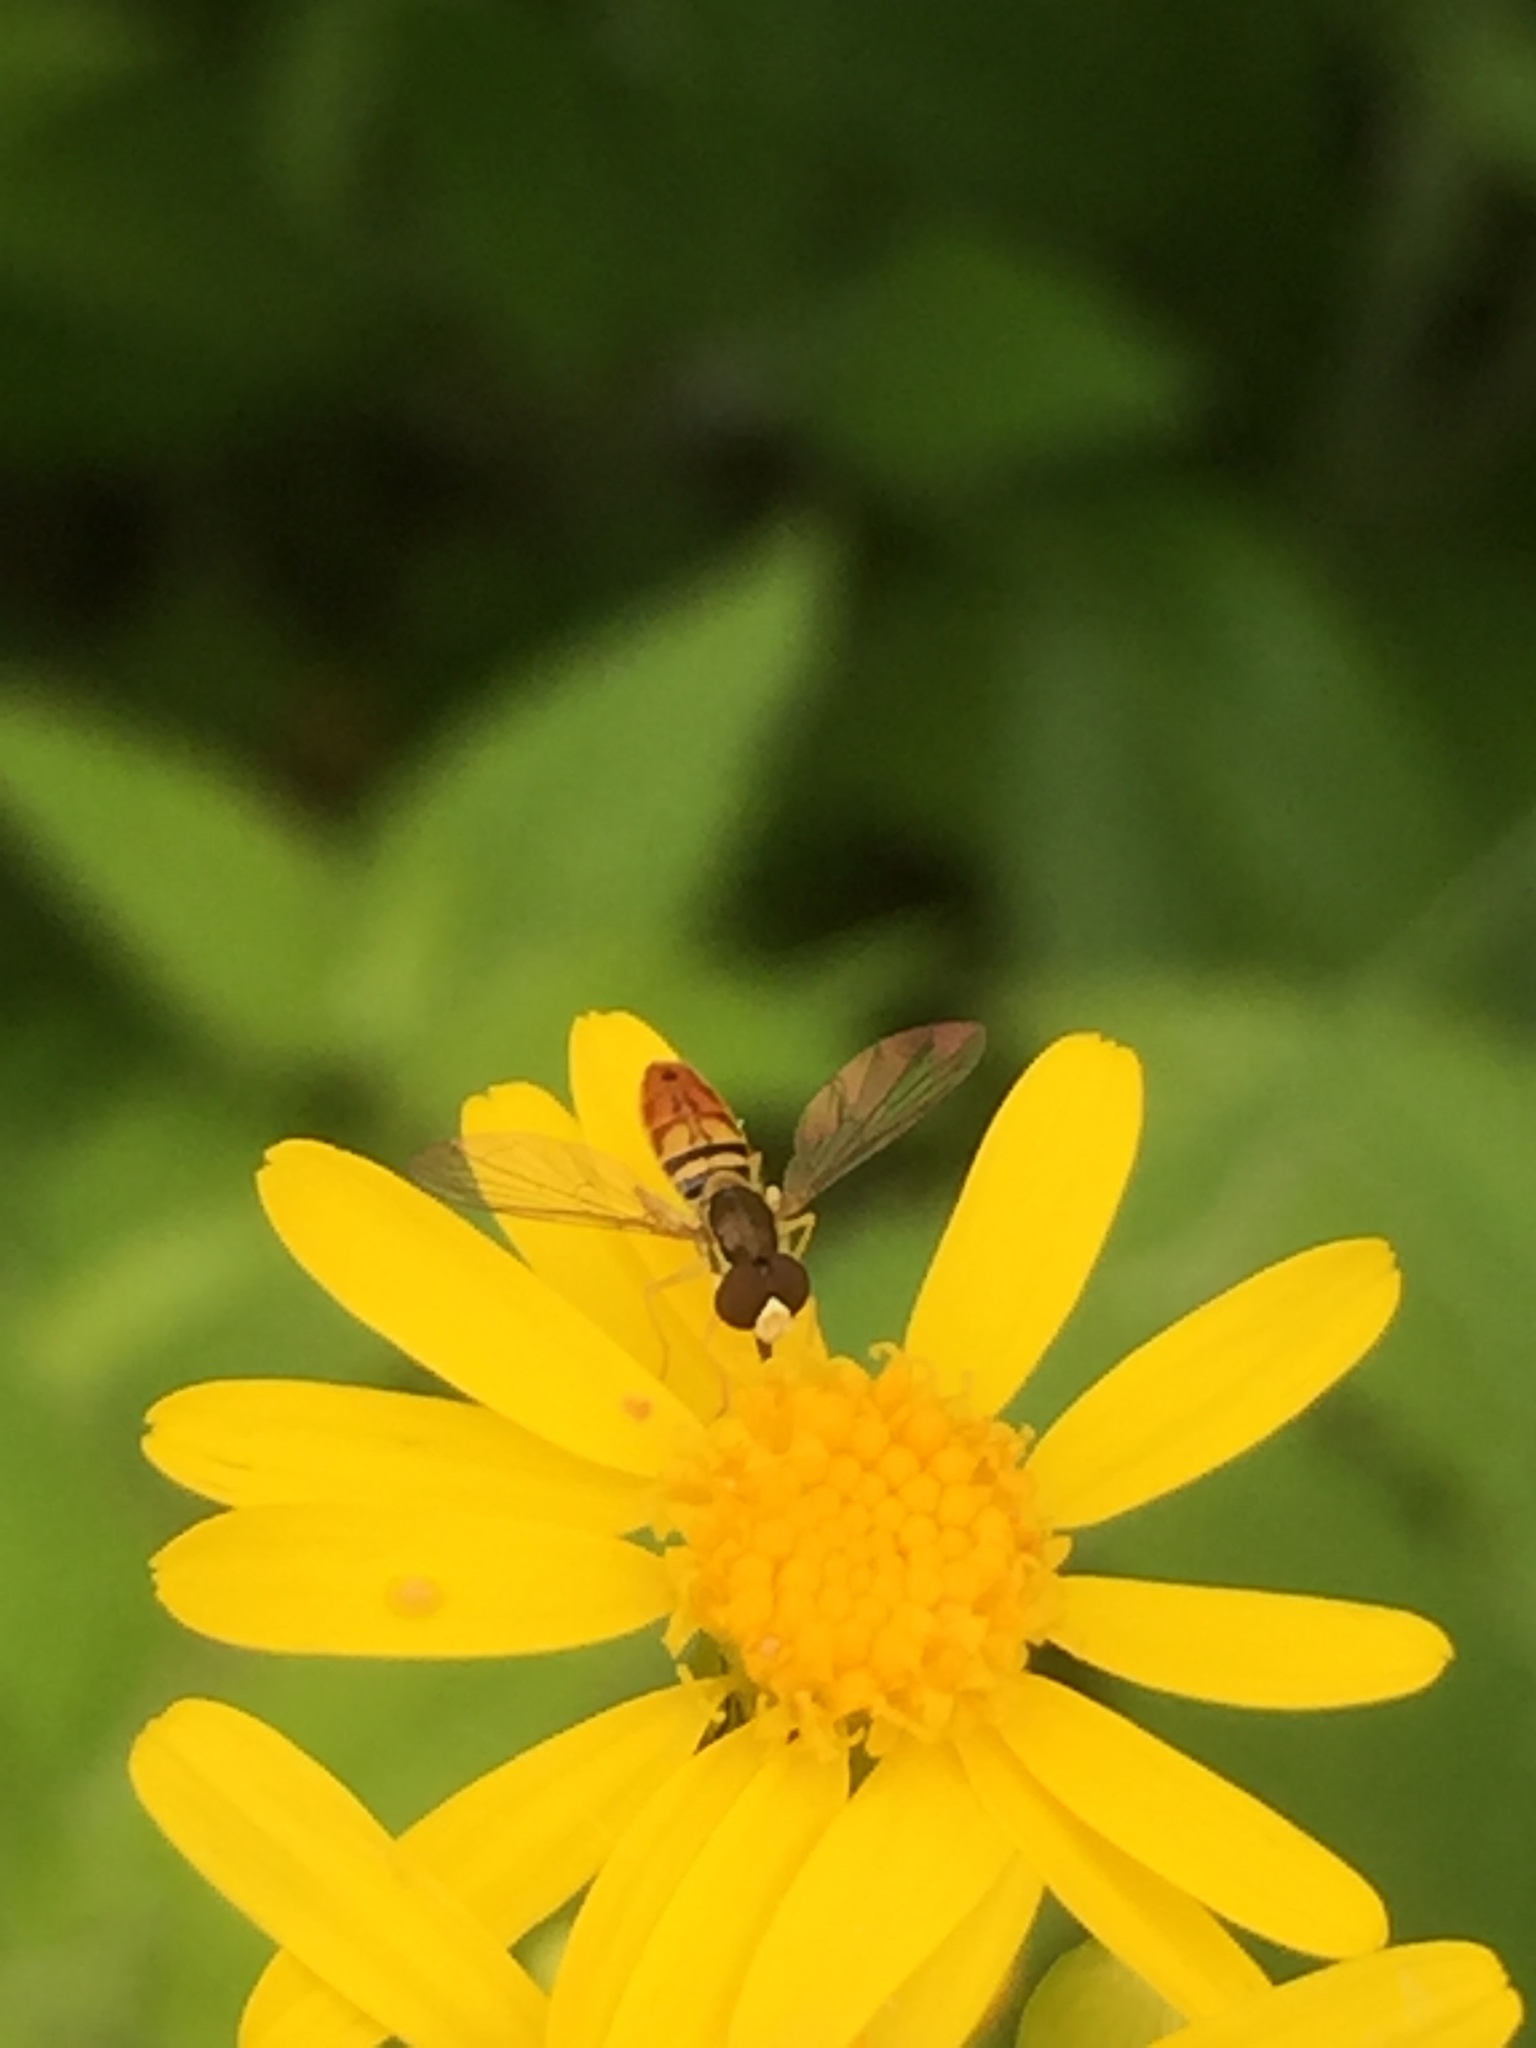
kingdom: Animalia
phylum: Arthropoda
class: Insecta
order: Diptera
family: Syrphidae
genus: Toxomerus
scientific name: Toxomerus marginatus
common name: Syrphid fly
